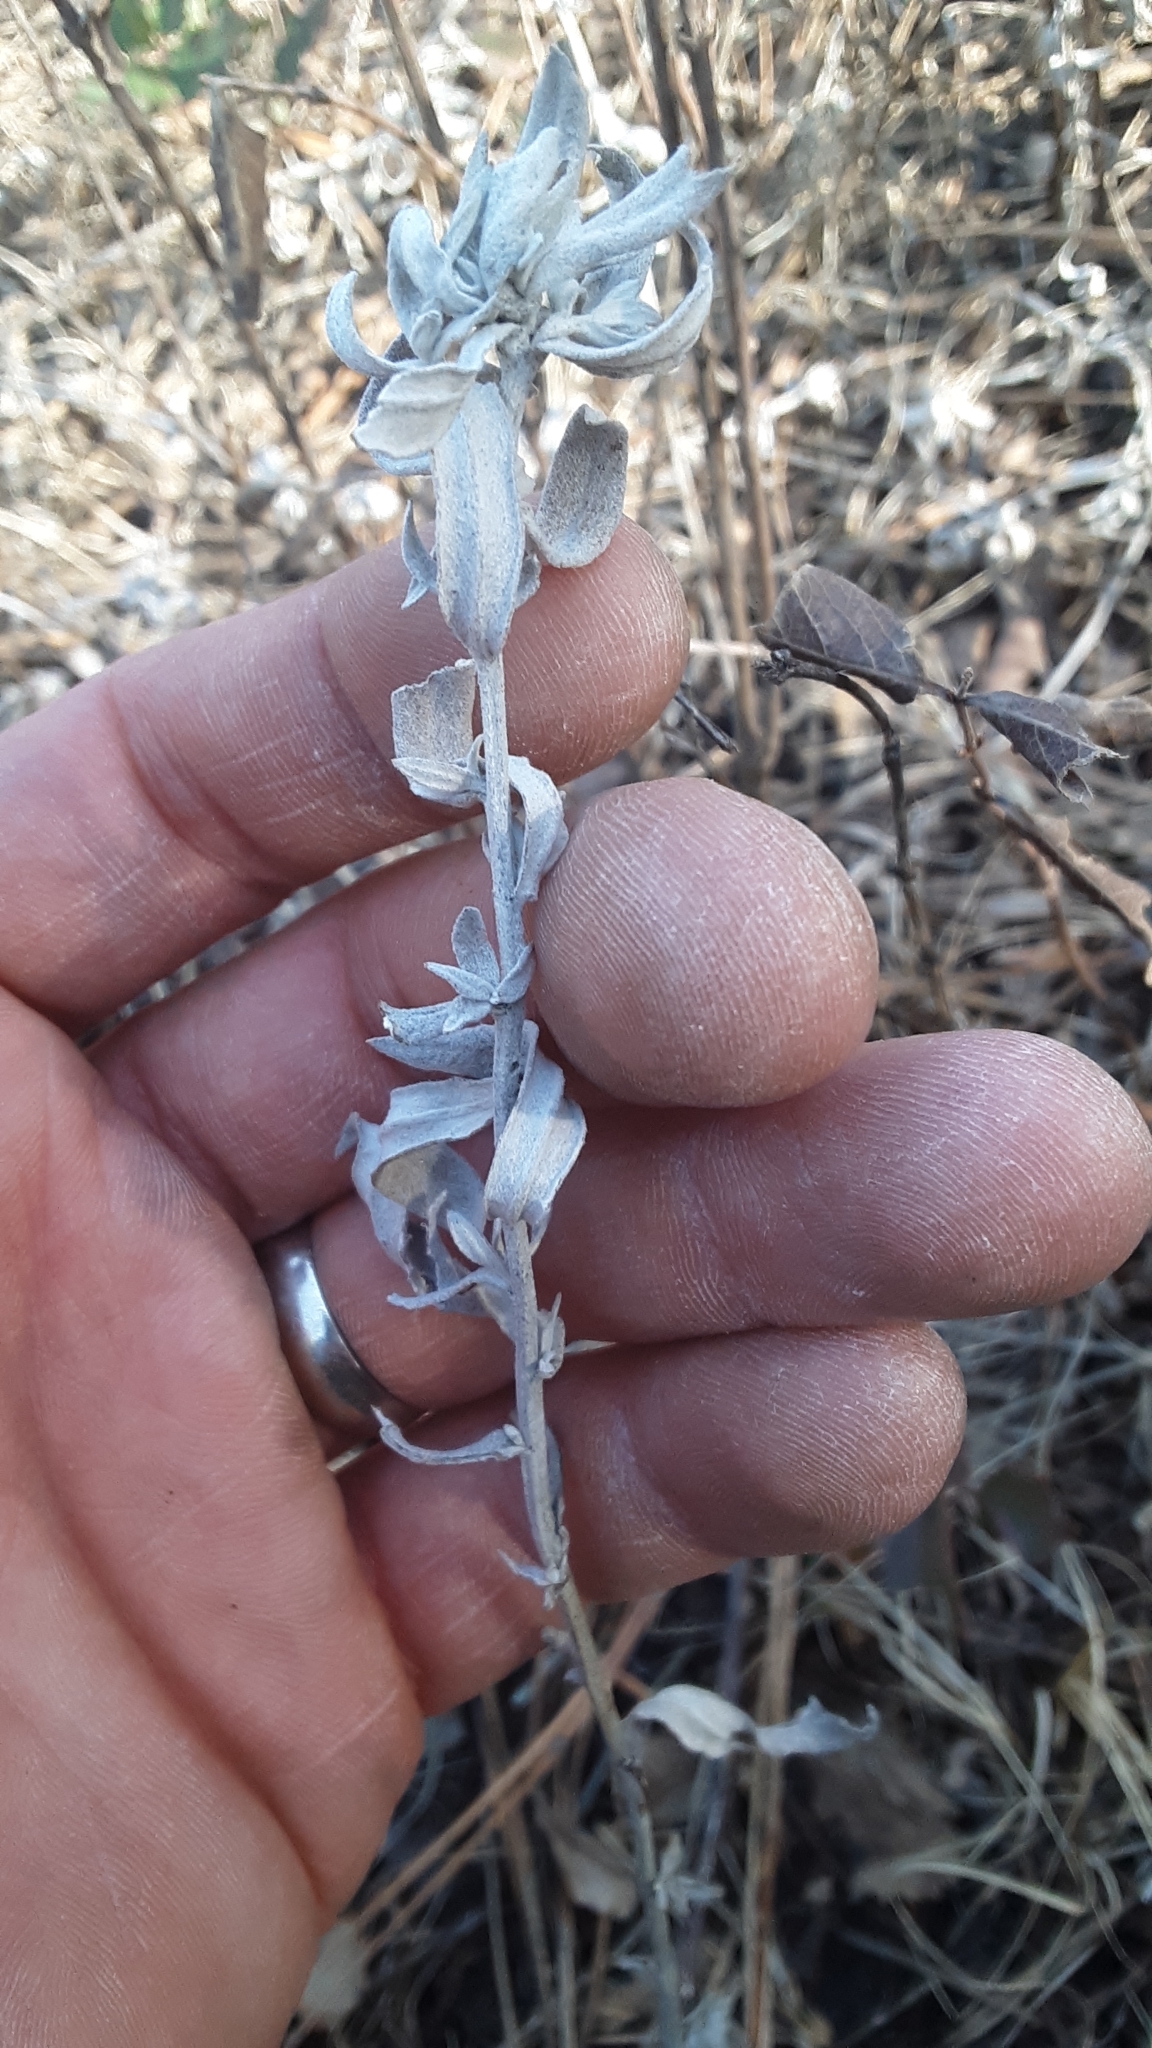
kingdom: Plantae
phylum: Tracheophyta
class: Magnoliopsida
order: Asterales
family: Asteraceae
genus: Artemisia
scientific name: Artemisia ludoviciana
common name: Western mugwort
